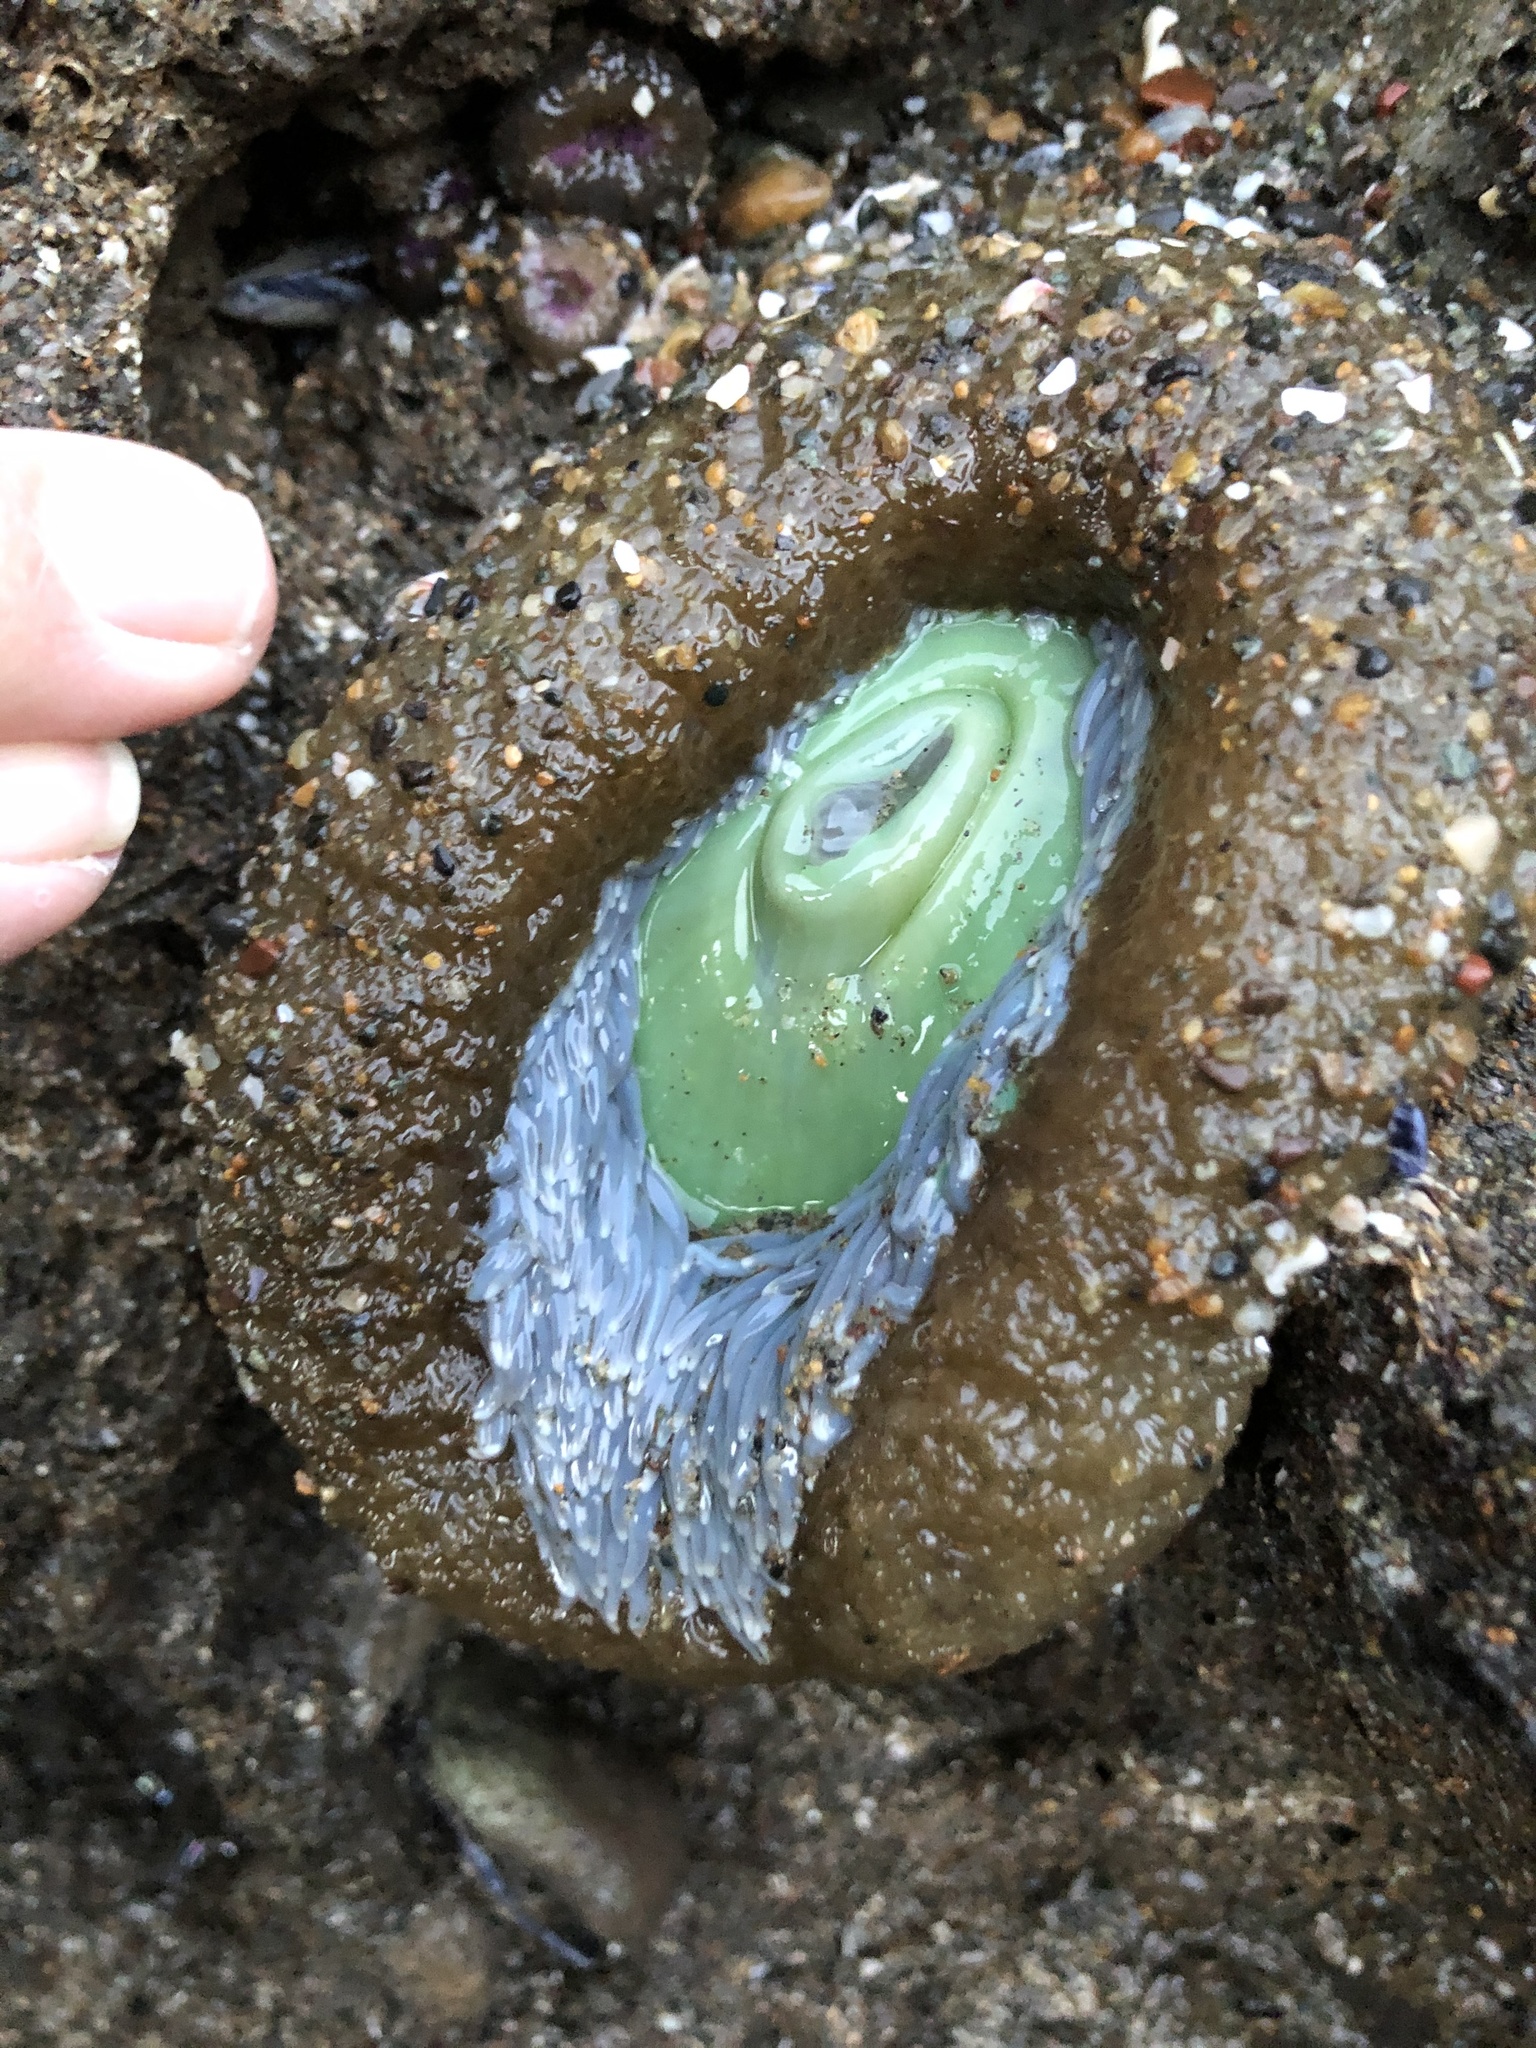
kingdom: Animalia
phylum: Cnidaria
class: Anthozoa
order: Actiniaria
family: Actiniidae
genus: Anthopleura
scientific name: Anthopleura xanthogrammica
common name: Giant green anemone
